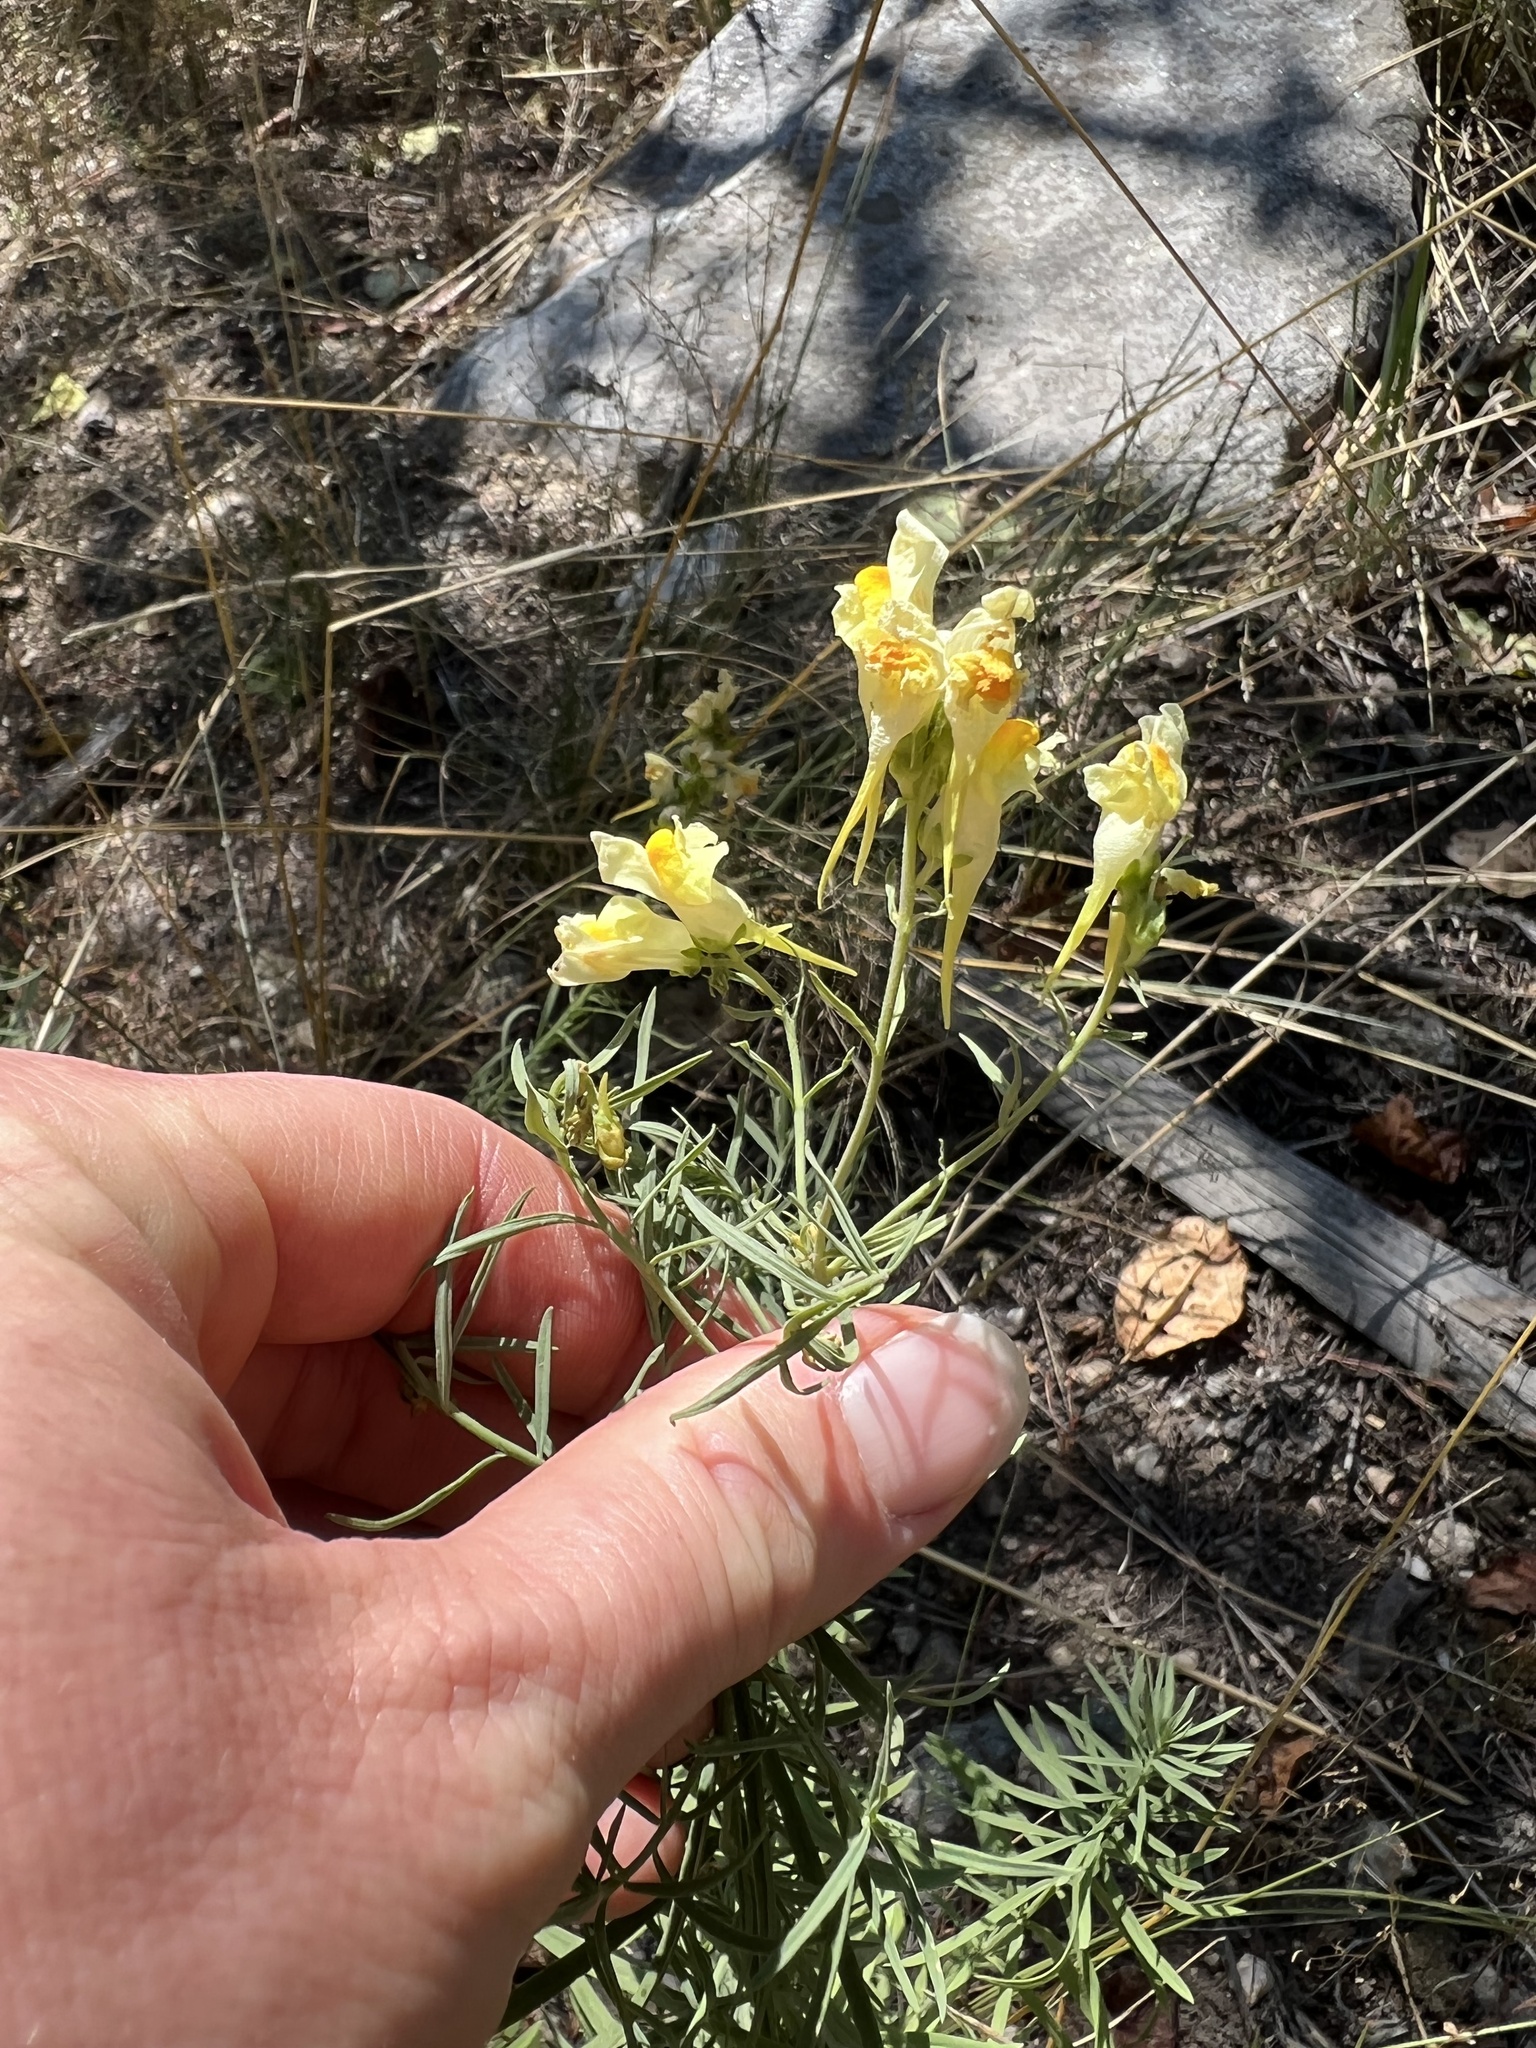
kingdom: Plantae
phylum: Tracheophyta
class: Magnoliopsida
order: Lamiales
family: Plantaginaceae
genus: Linaria
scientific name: Linaria vulgaris
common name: Butter and eggs
